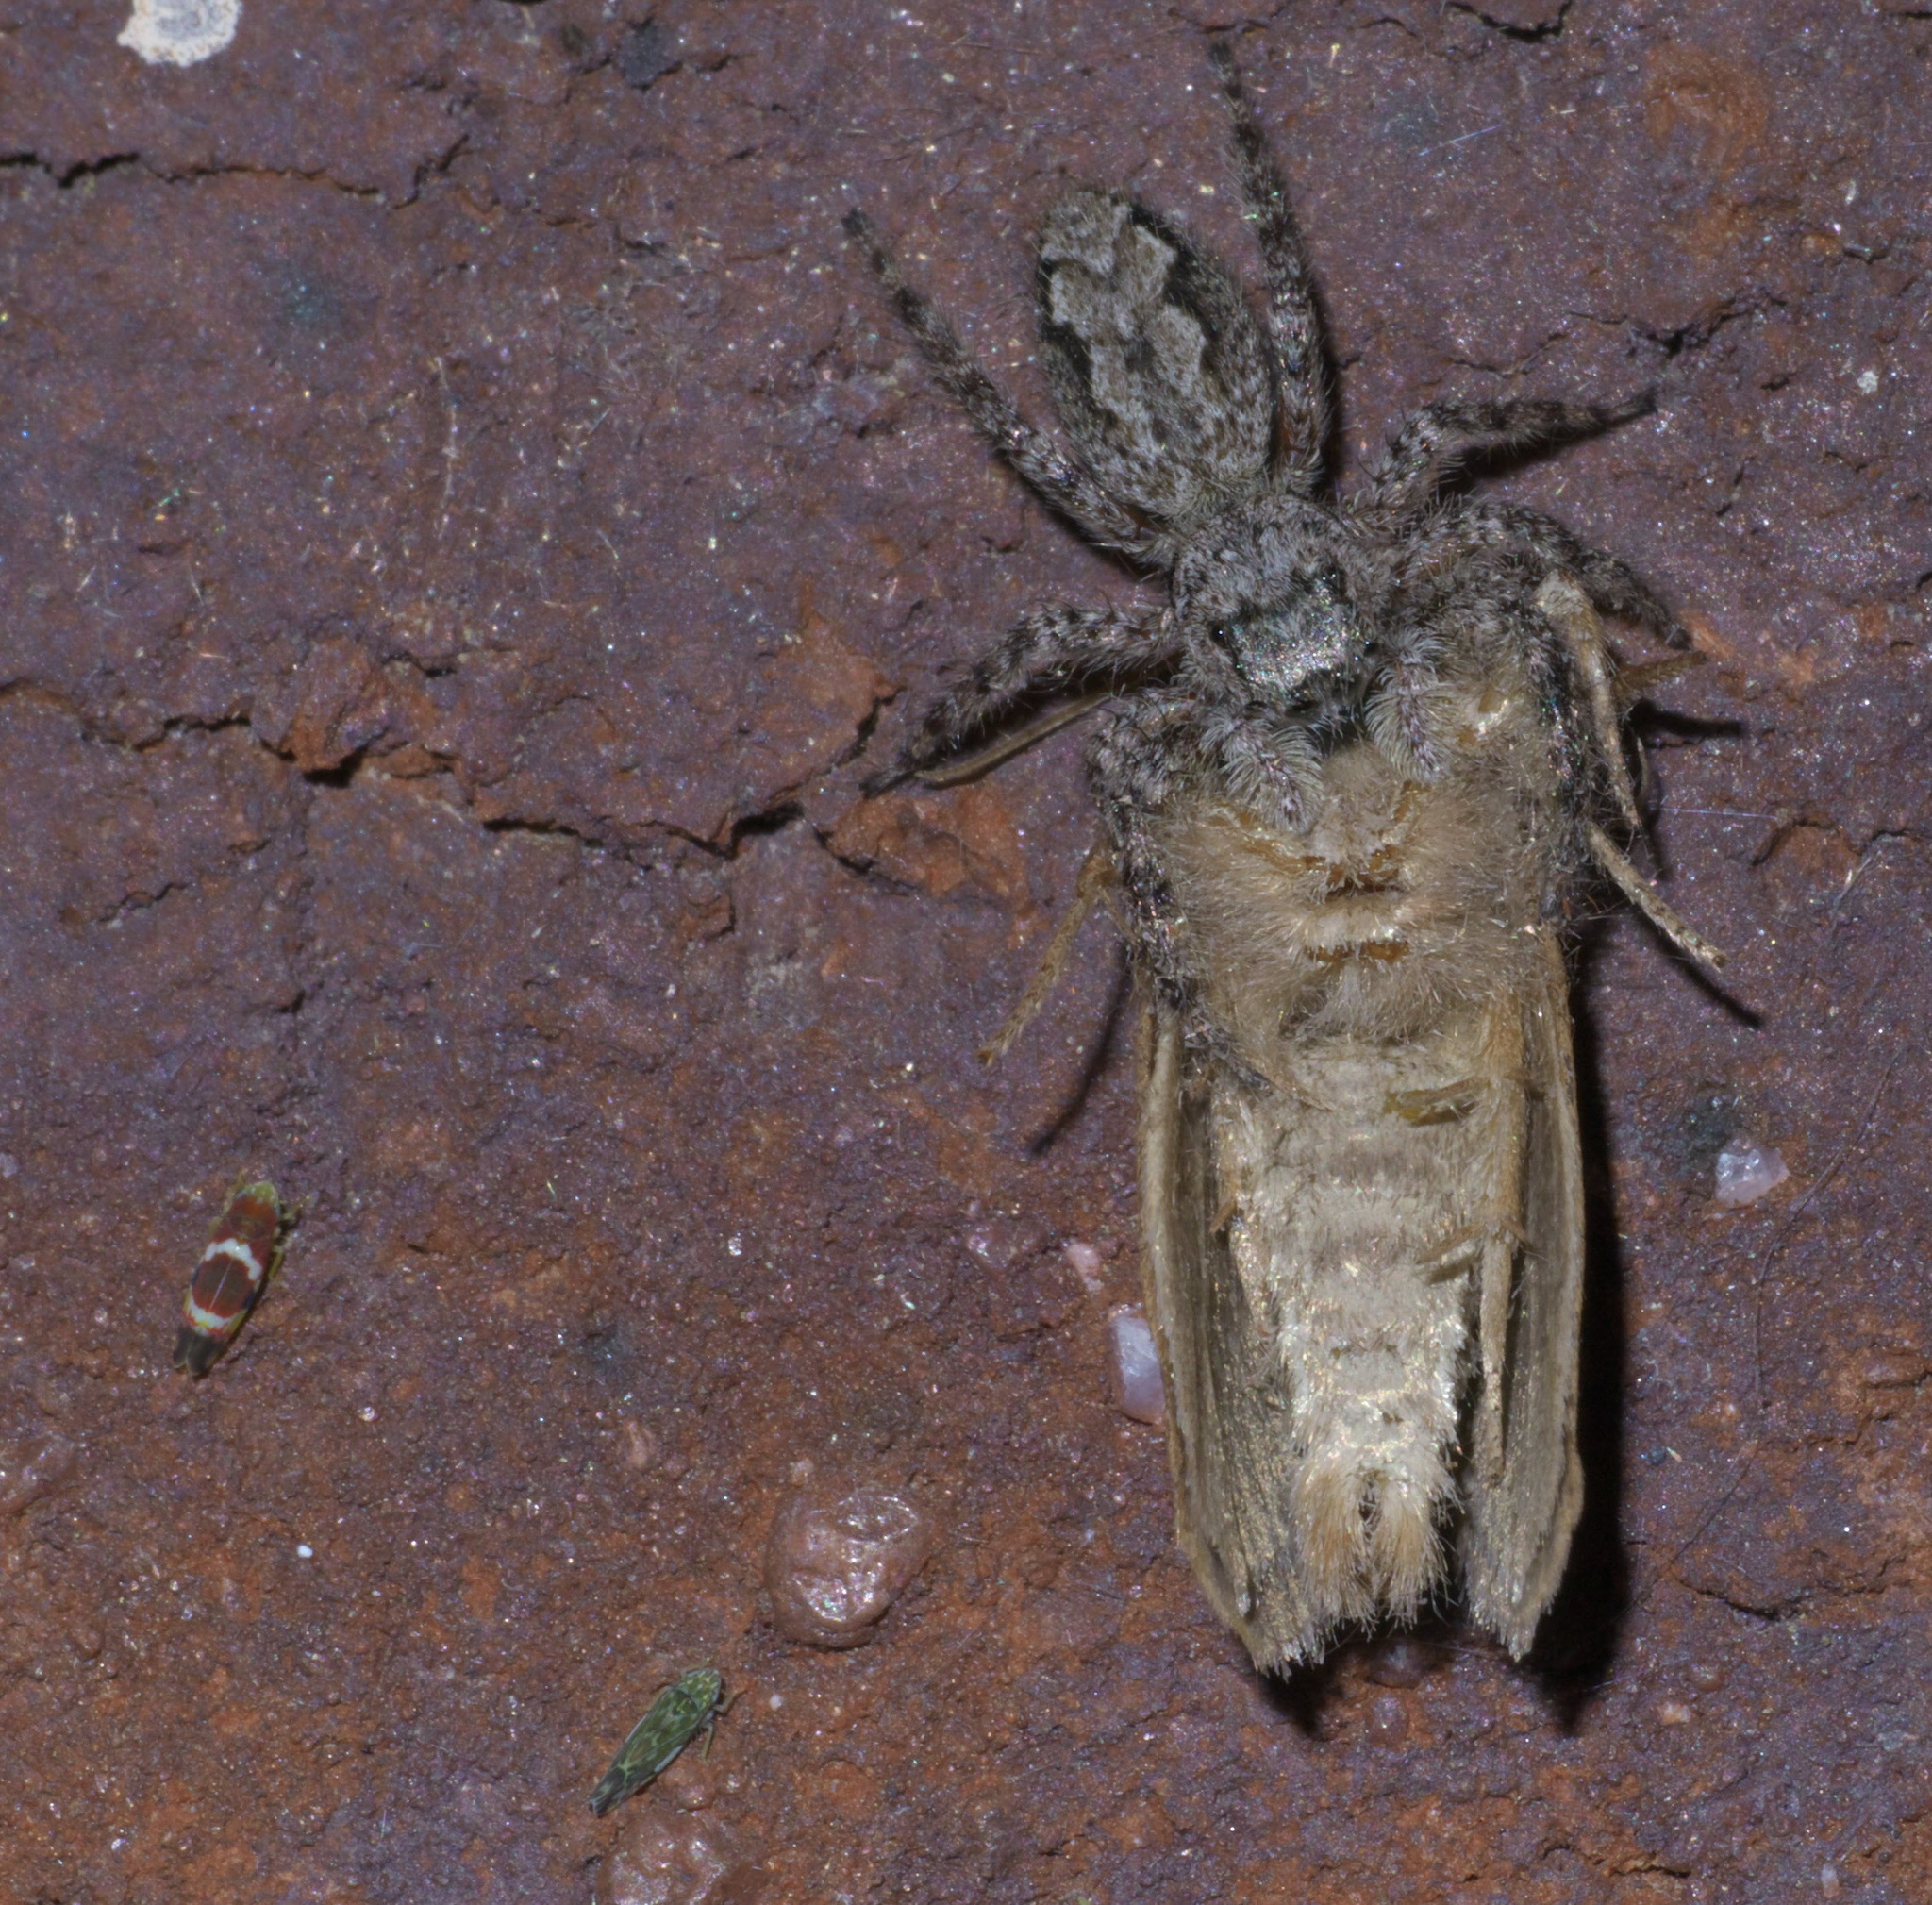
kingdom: Animalia
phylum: Arthropoda
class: Arachnida
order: Araneae
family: Salticidae
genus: Platycryptus
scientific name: Platycryptus undatus
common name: Tan jumping spider
